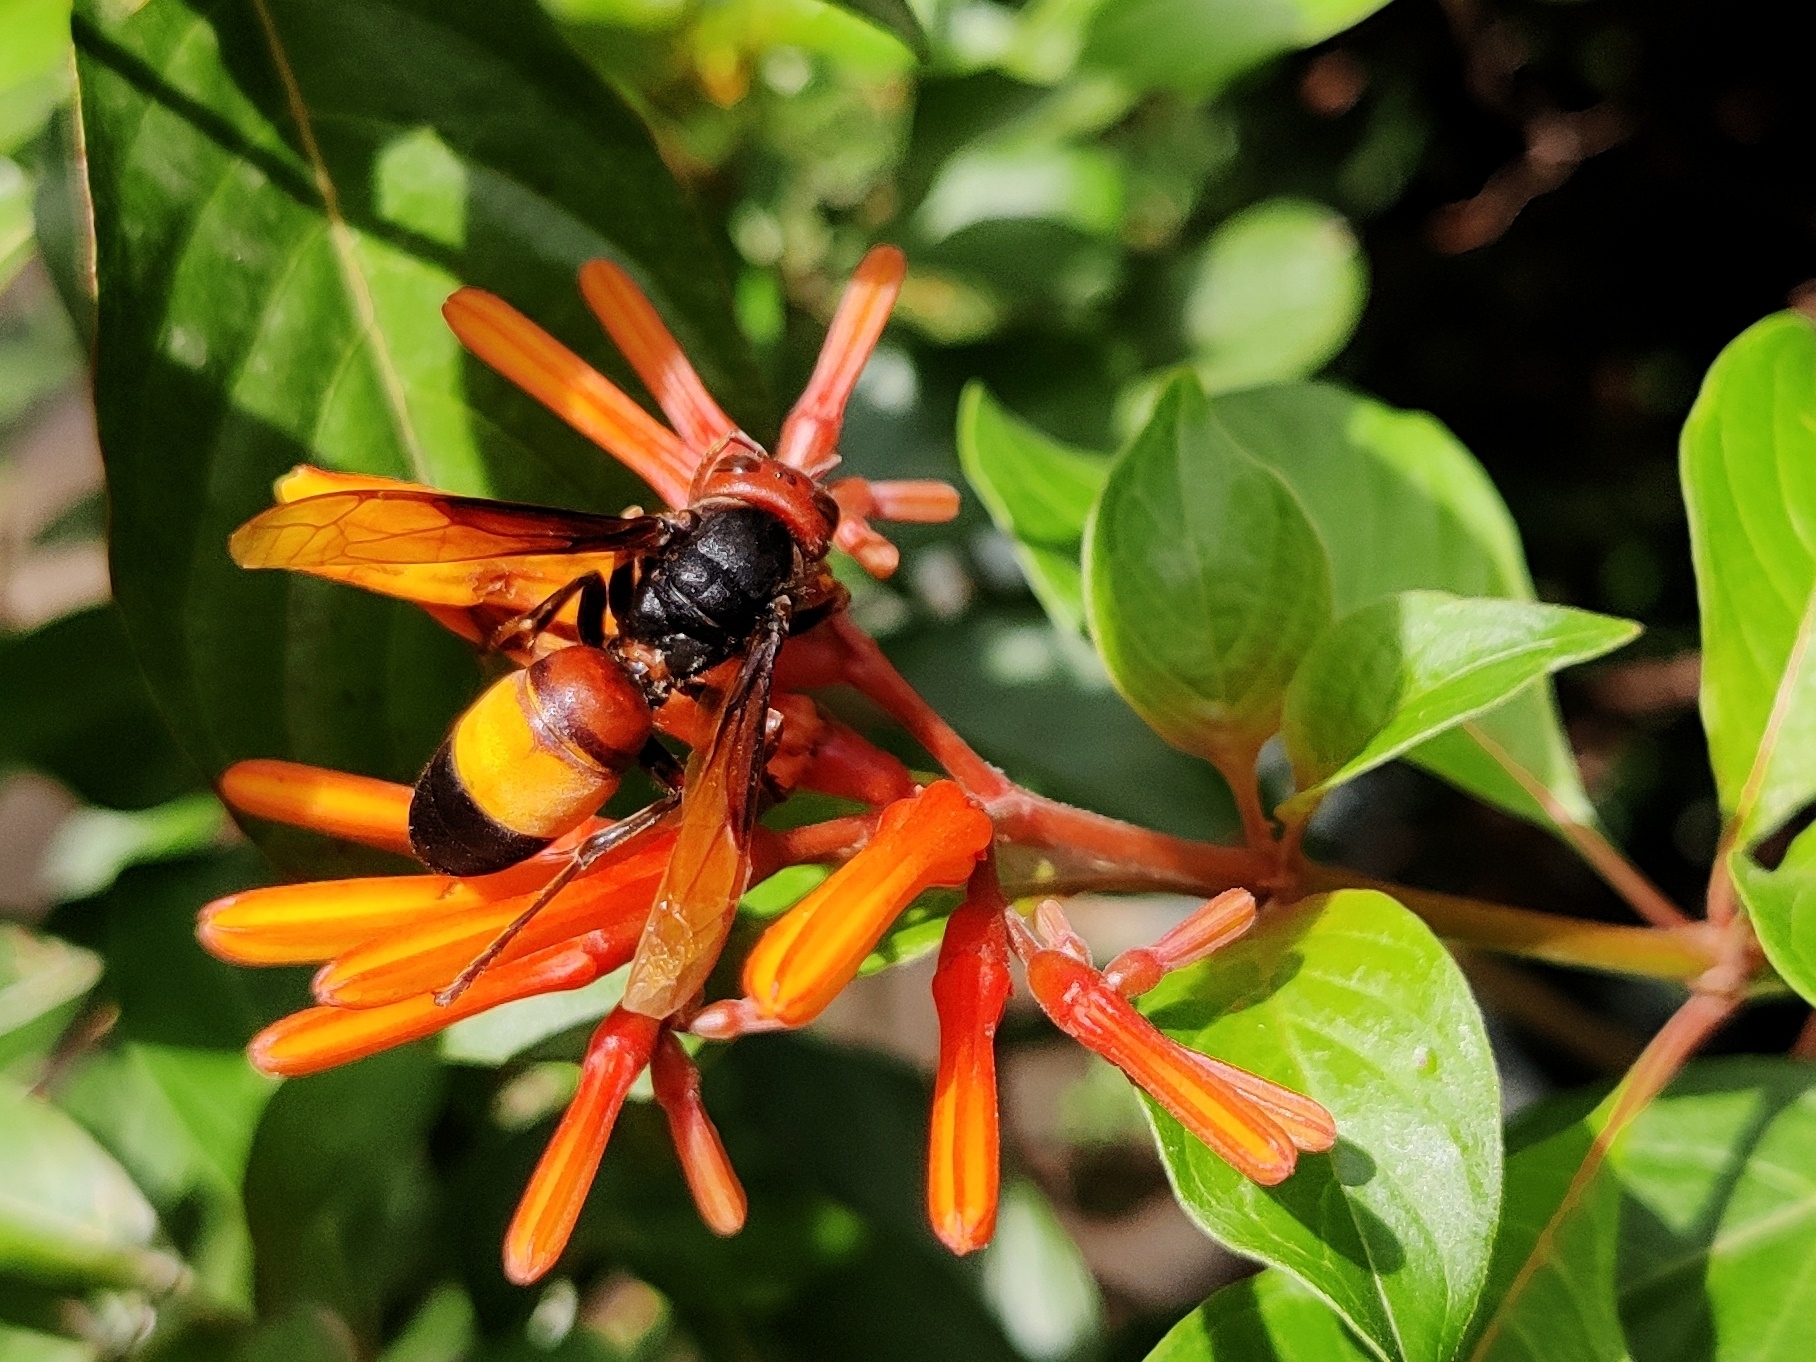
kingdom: Animalia
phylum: Arthropoda
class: Insecta
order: Hymenoptera
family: Vespidae
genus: Vespa
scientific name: Vespa affinis
